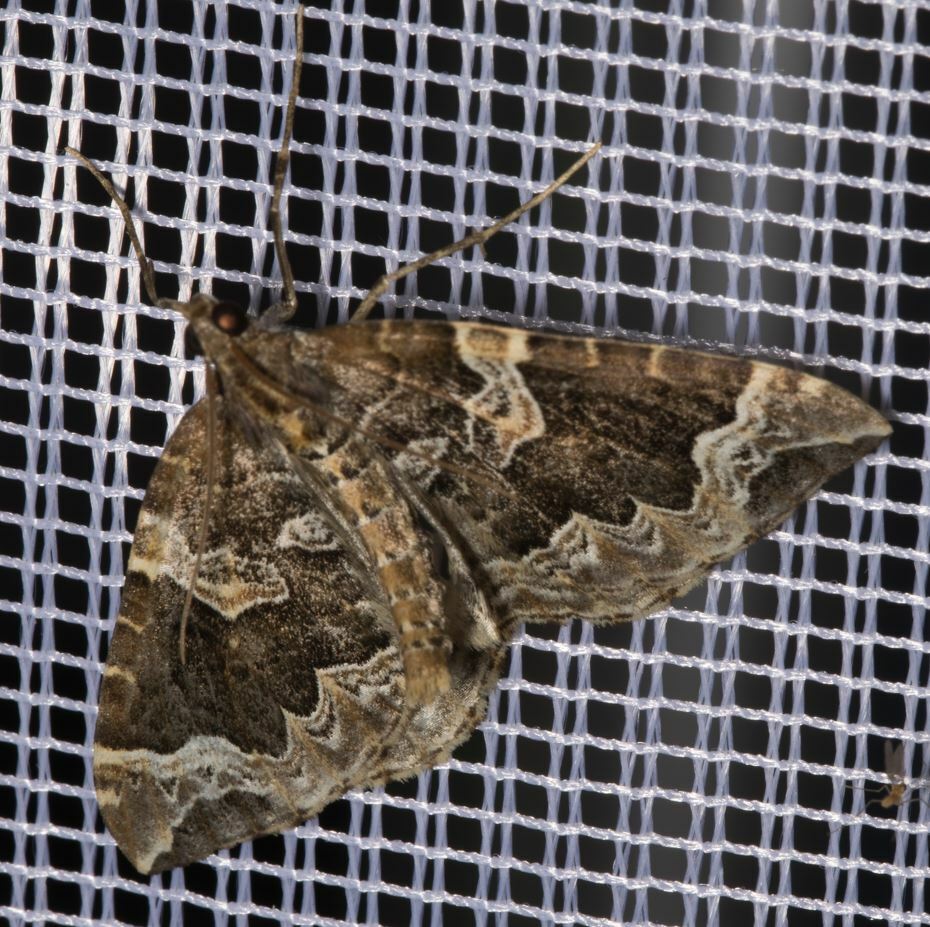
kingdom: Animalia
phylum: Arthropoda
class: Insecta
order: Lepidoptera
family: Geometridae
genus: Eulithis
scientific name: Eulithis prunata
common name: Phoenix
